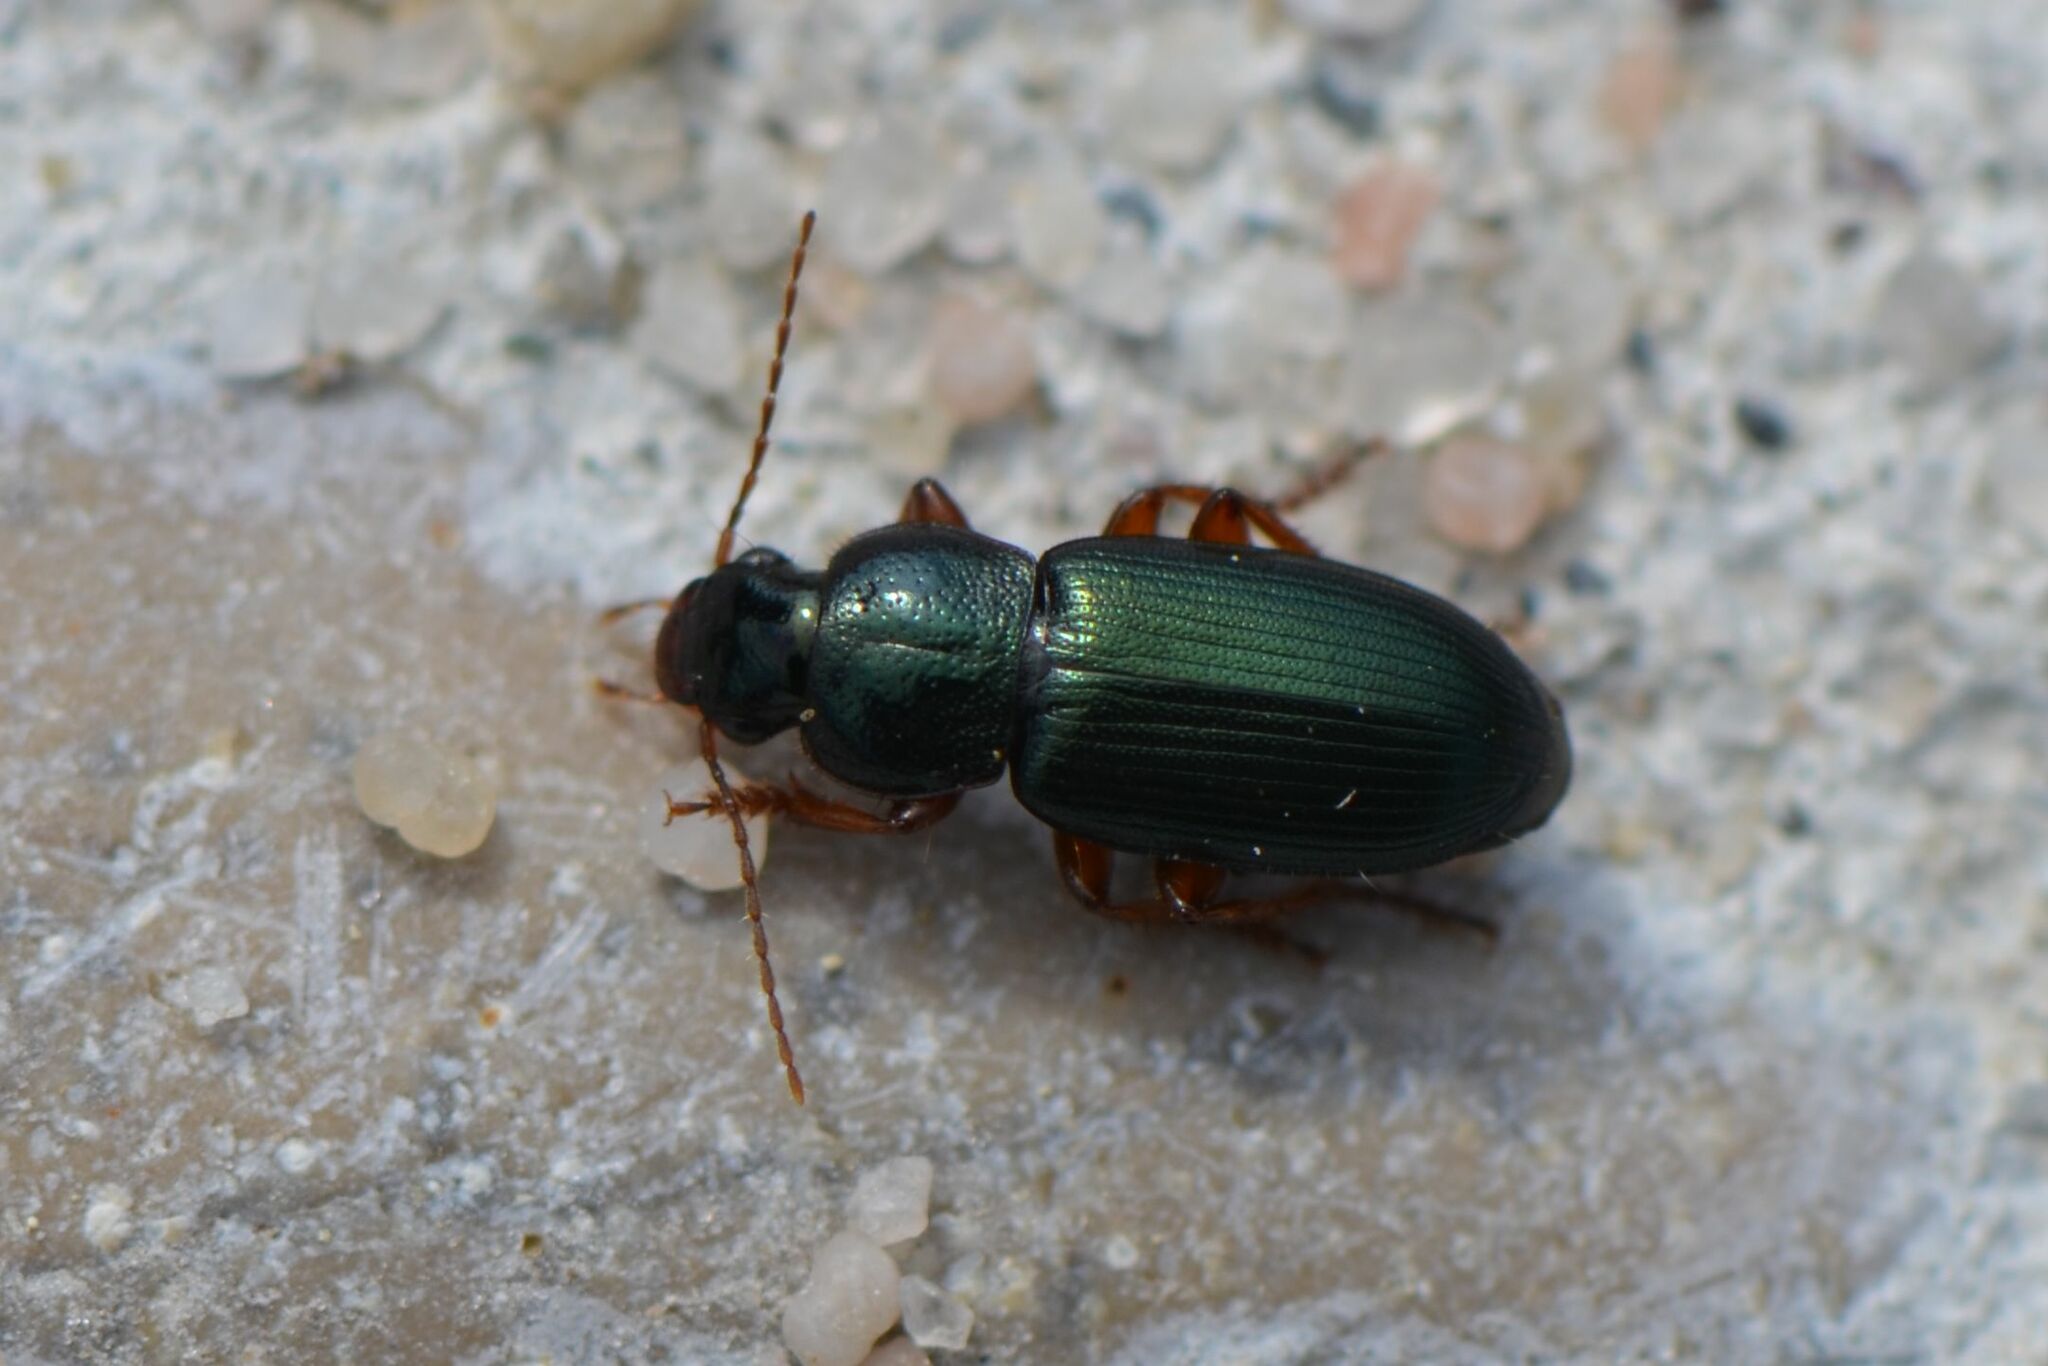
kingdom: Animalia
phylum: Arthropoda
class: Insecta
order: Coleoptera
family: Carabidae
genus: Ophonus
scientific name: Ophonus azureus
